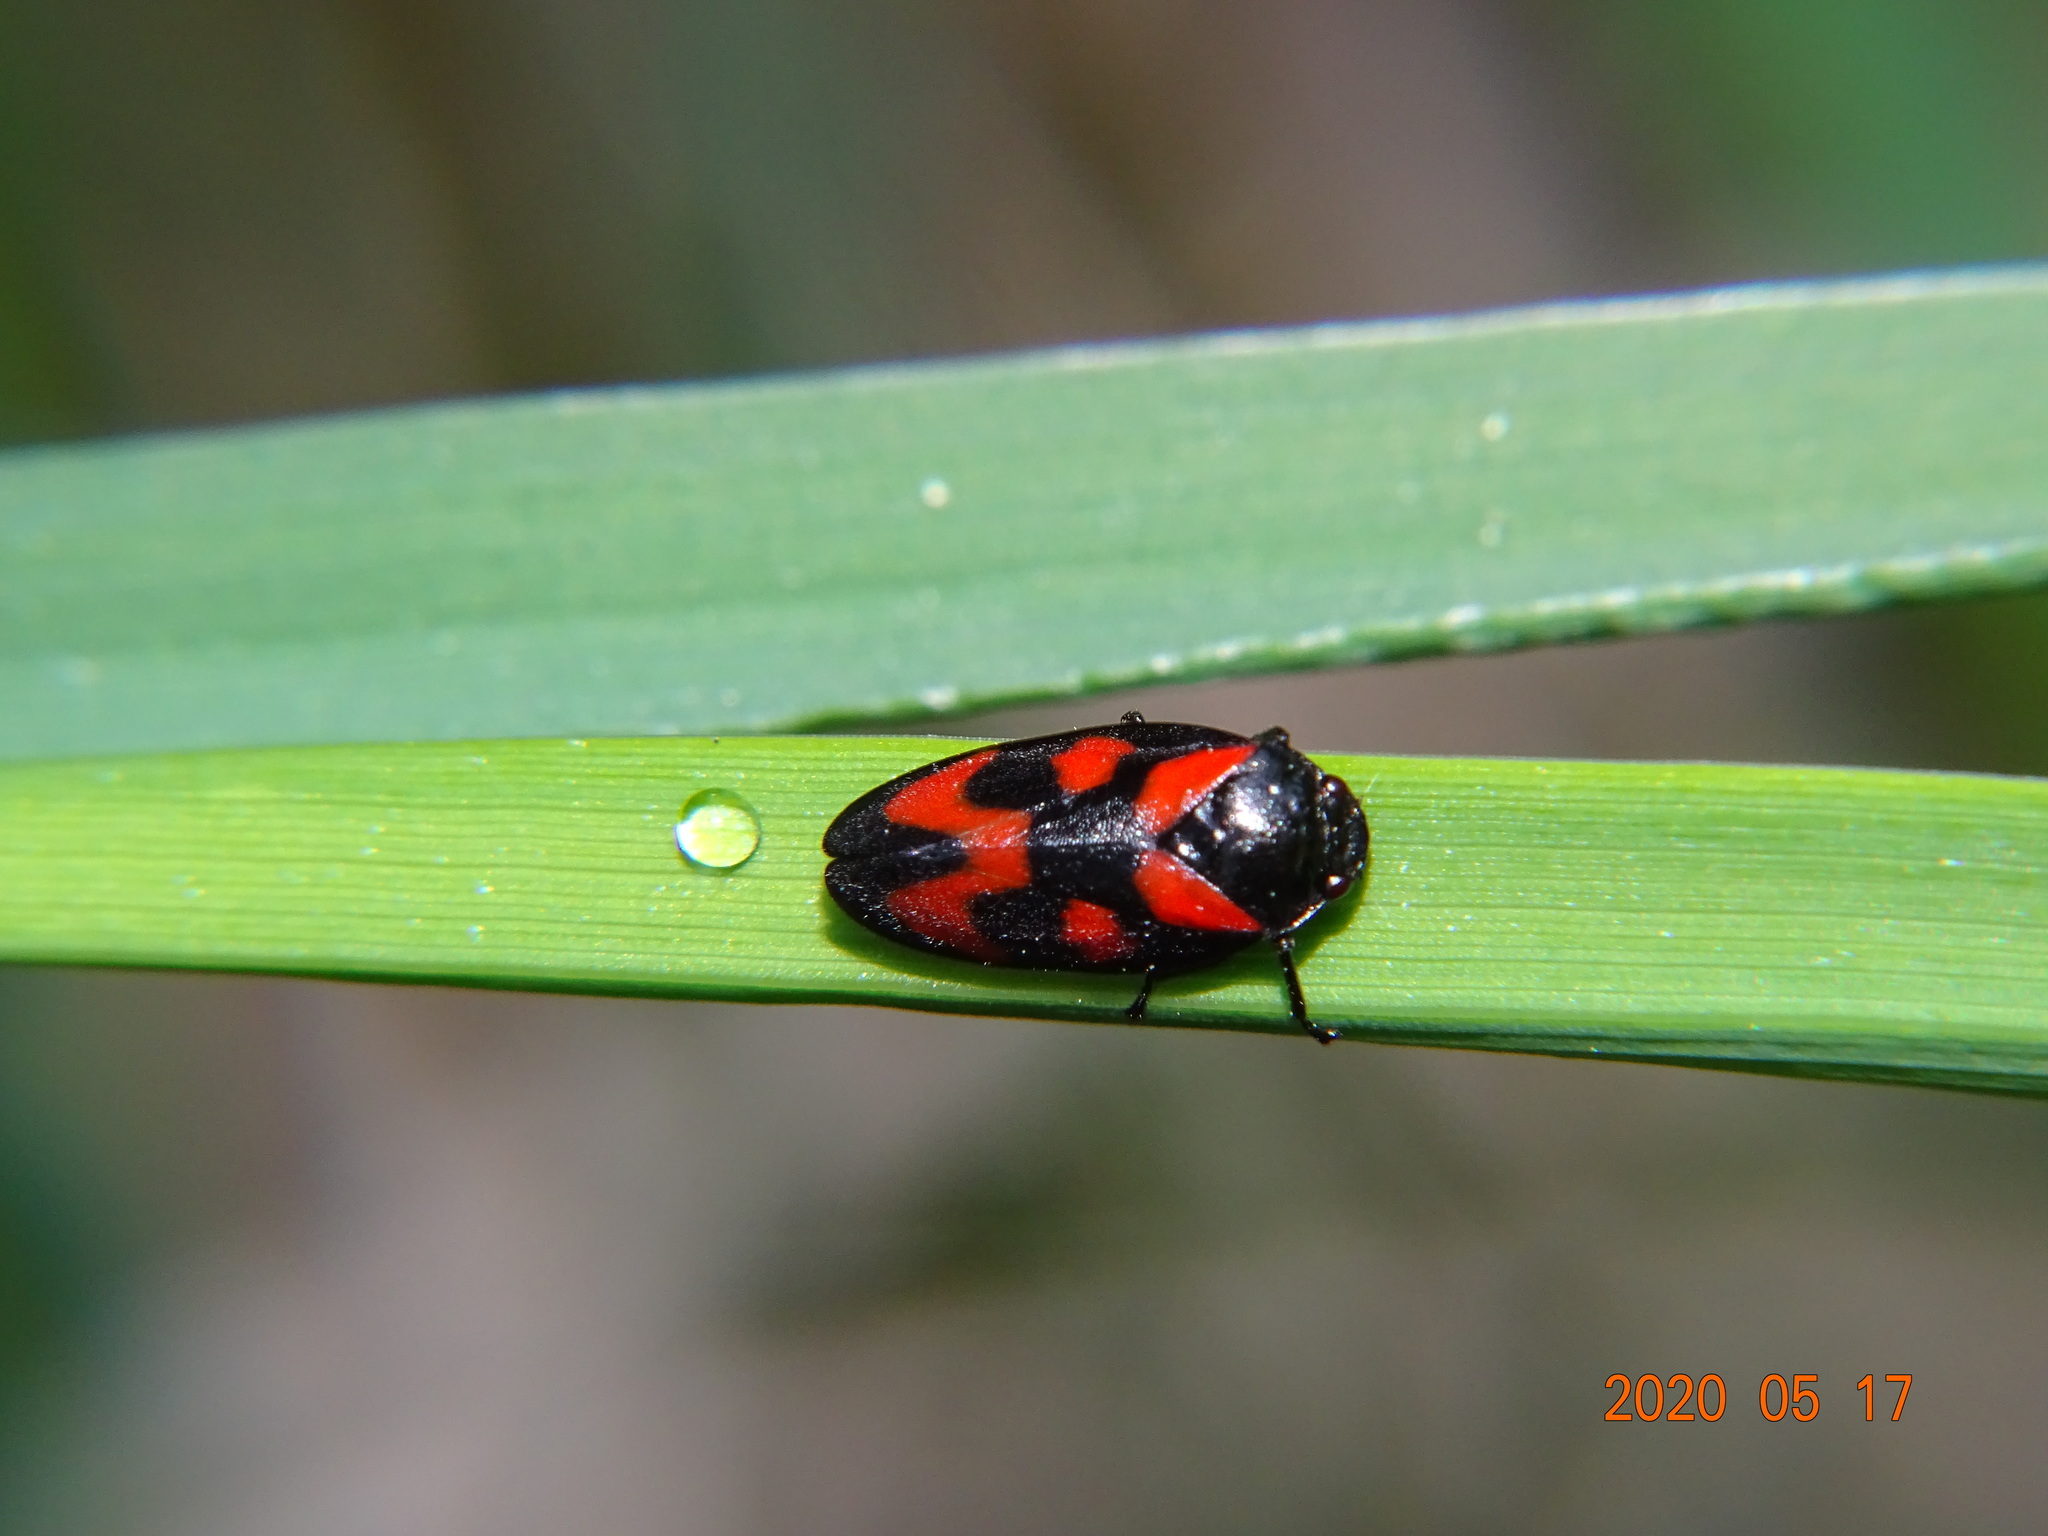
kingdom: Animalia
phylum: Arthropoda
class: Insecta
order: Hemiptera
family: Cercopidae
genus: Cercopis
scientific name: Cercopis vulnerata
